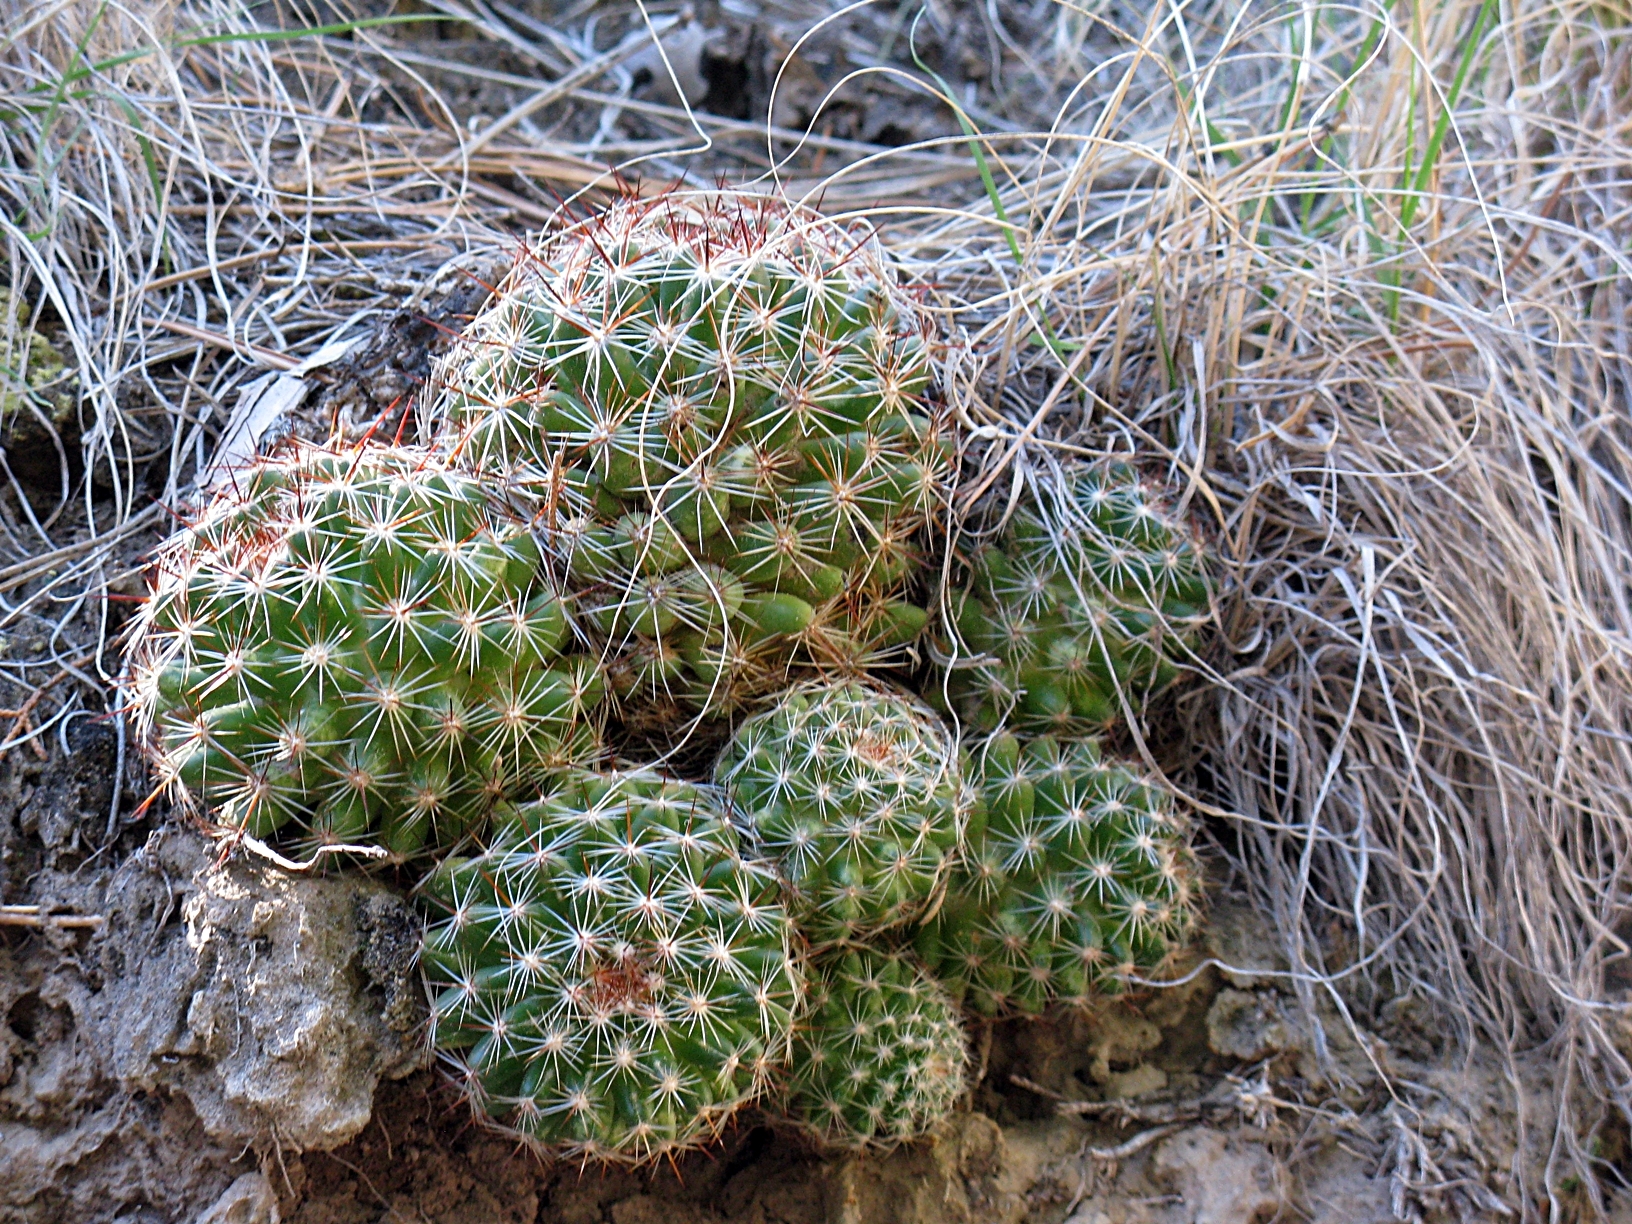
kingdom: Plantae
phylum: Tracheophyta
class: Magnoliopsida
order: Caryophyllales
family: Cactaceae
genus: Pelecyphora
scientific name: Pelecyphora vivipara
